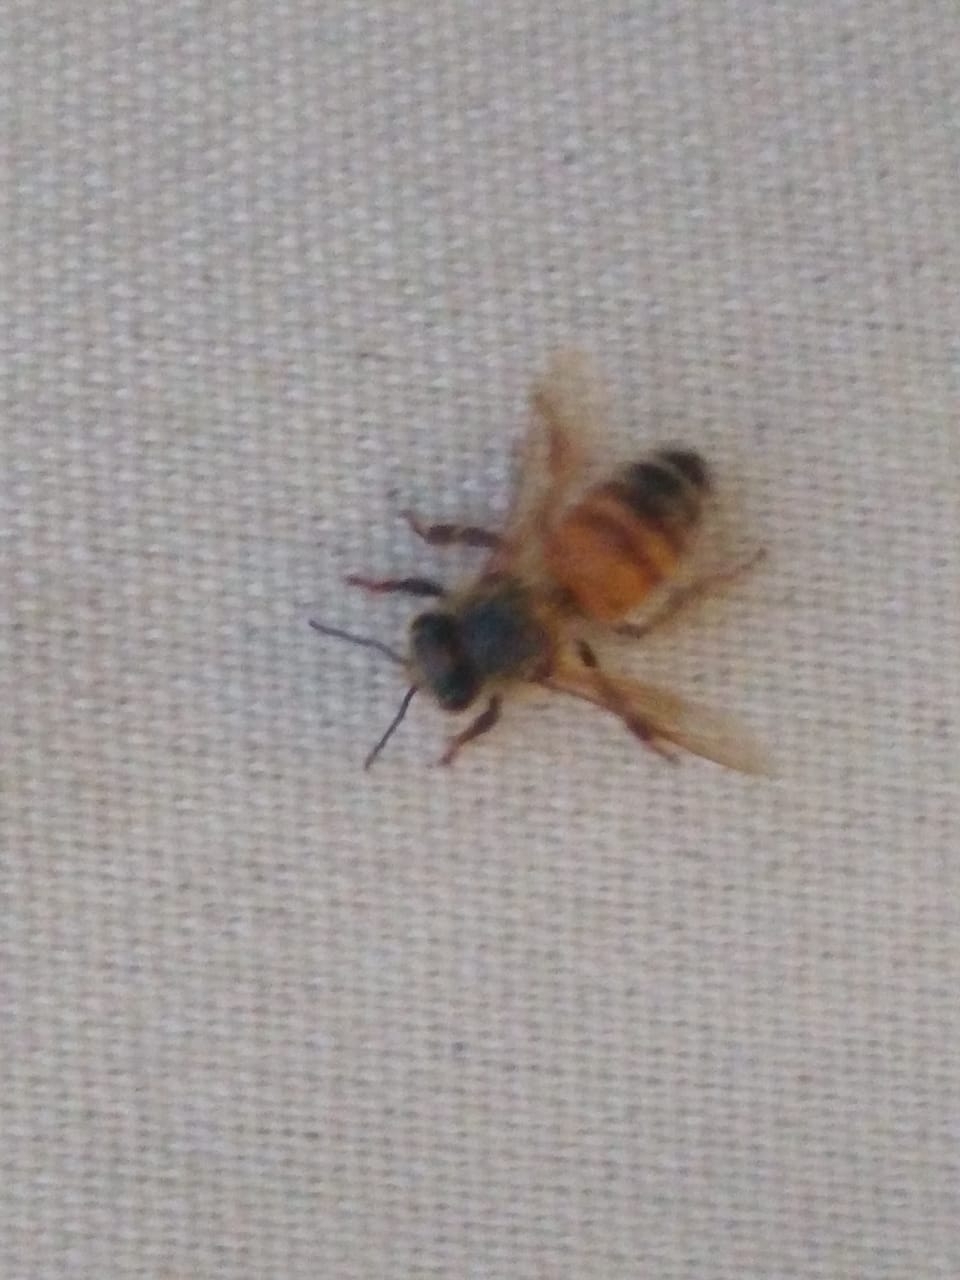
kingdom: Animalia
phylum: Arthropoda
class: Insecta
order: Hymenoptera
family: Apidae
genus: Apis
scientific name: Apis mellifera
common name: Honey bee
